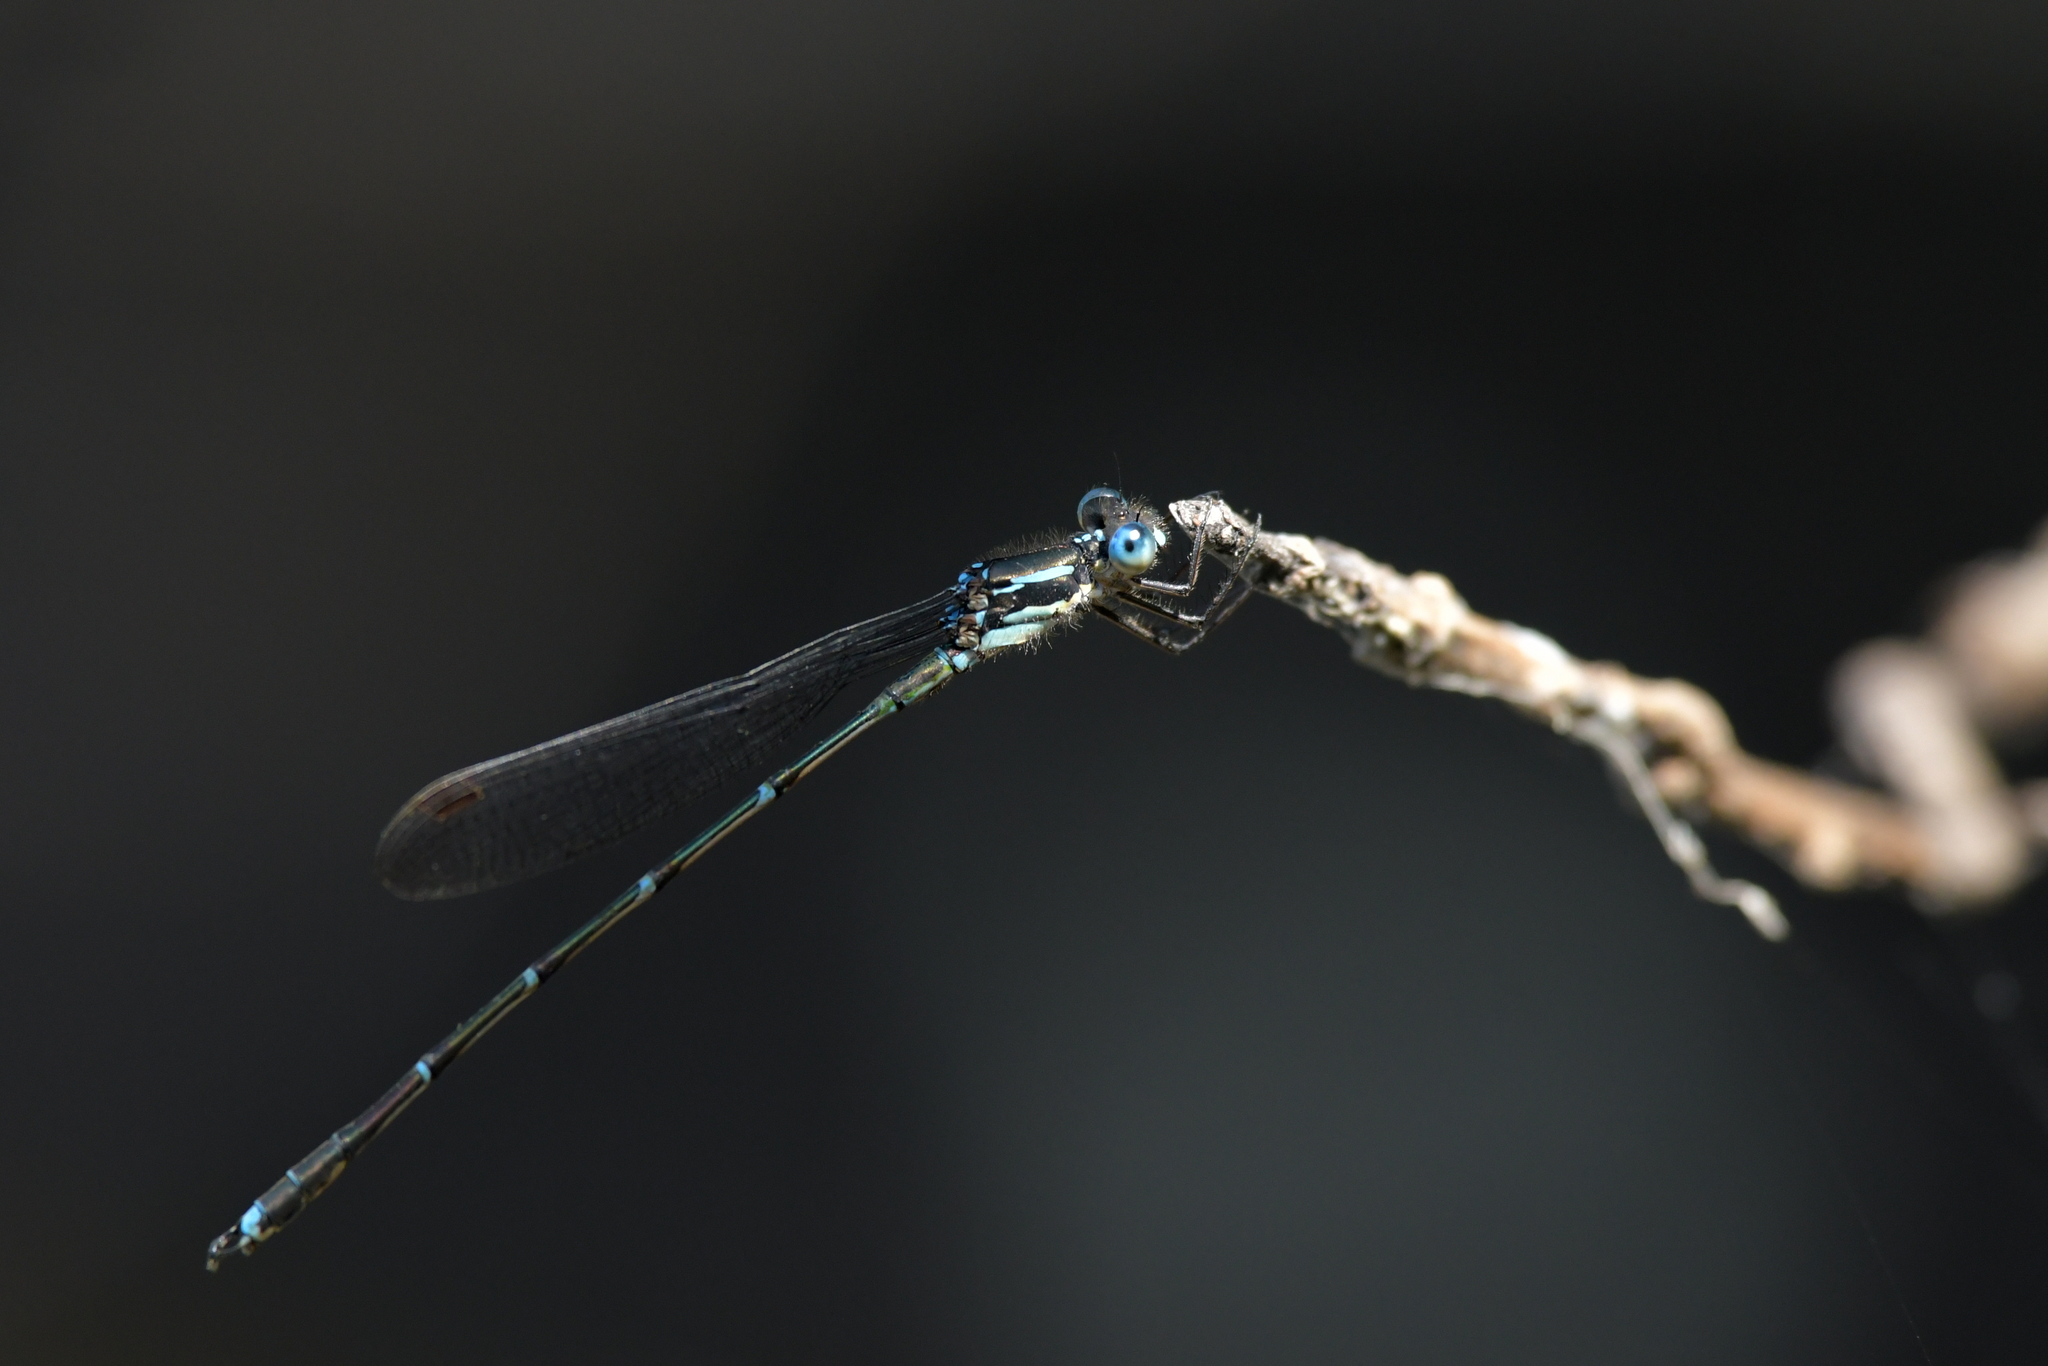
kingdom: Animalia
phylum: Arthropoda
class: Insecta
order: Odonata
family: Lestidae
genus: Austrolestes
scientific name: Austrolestes colensonis
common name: Blue damselfly
